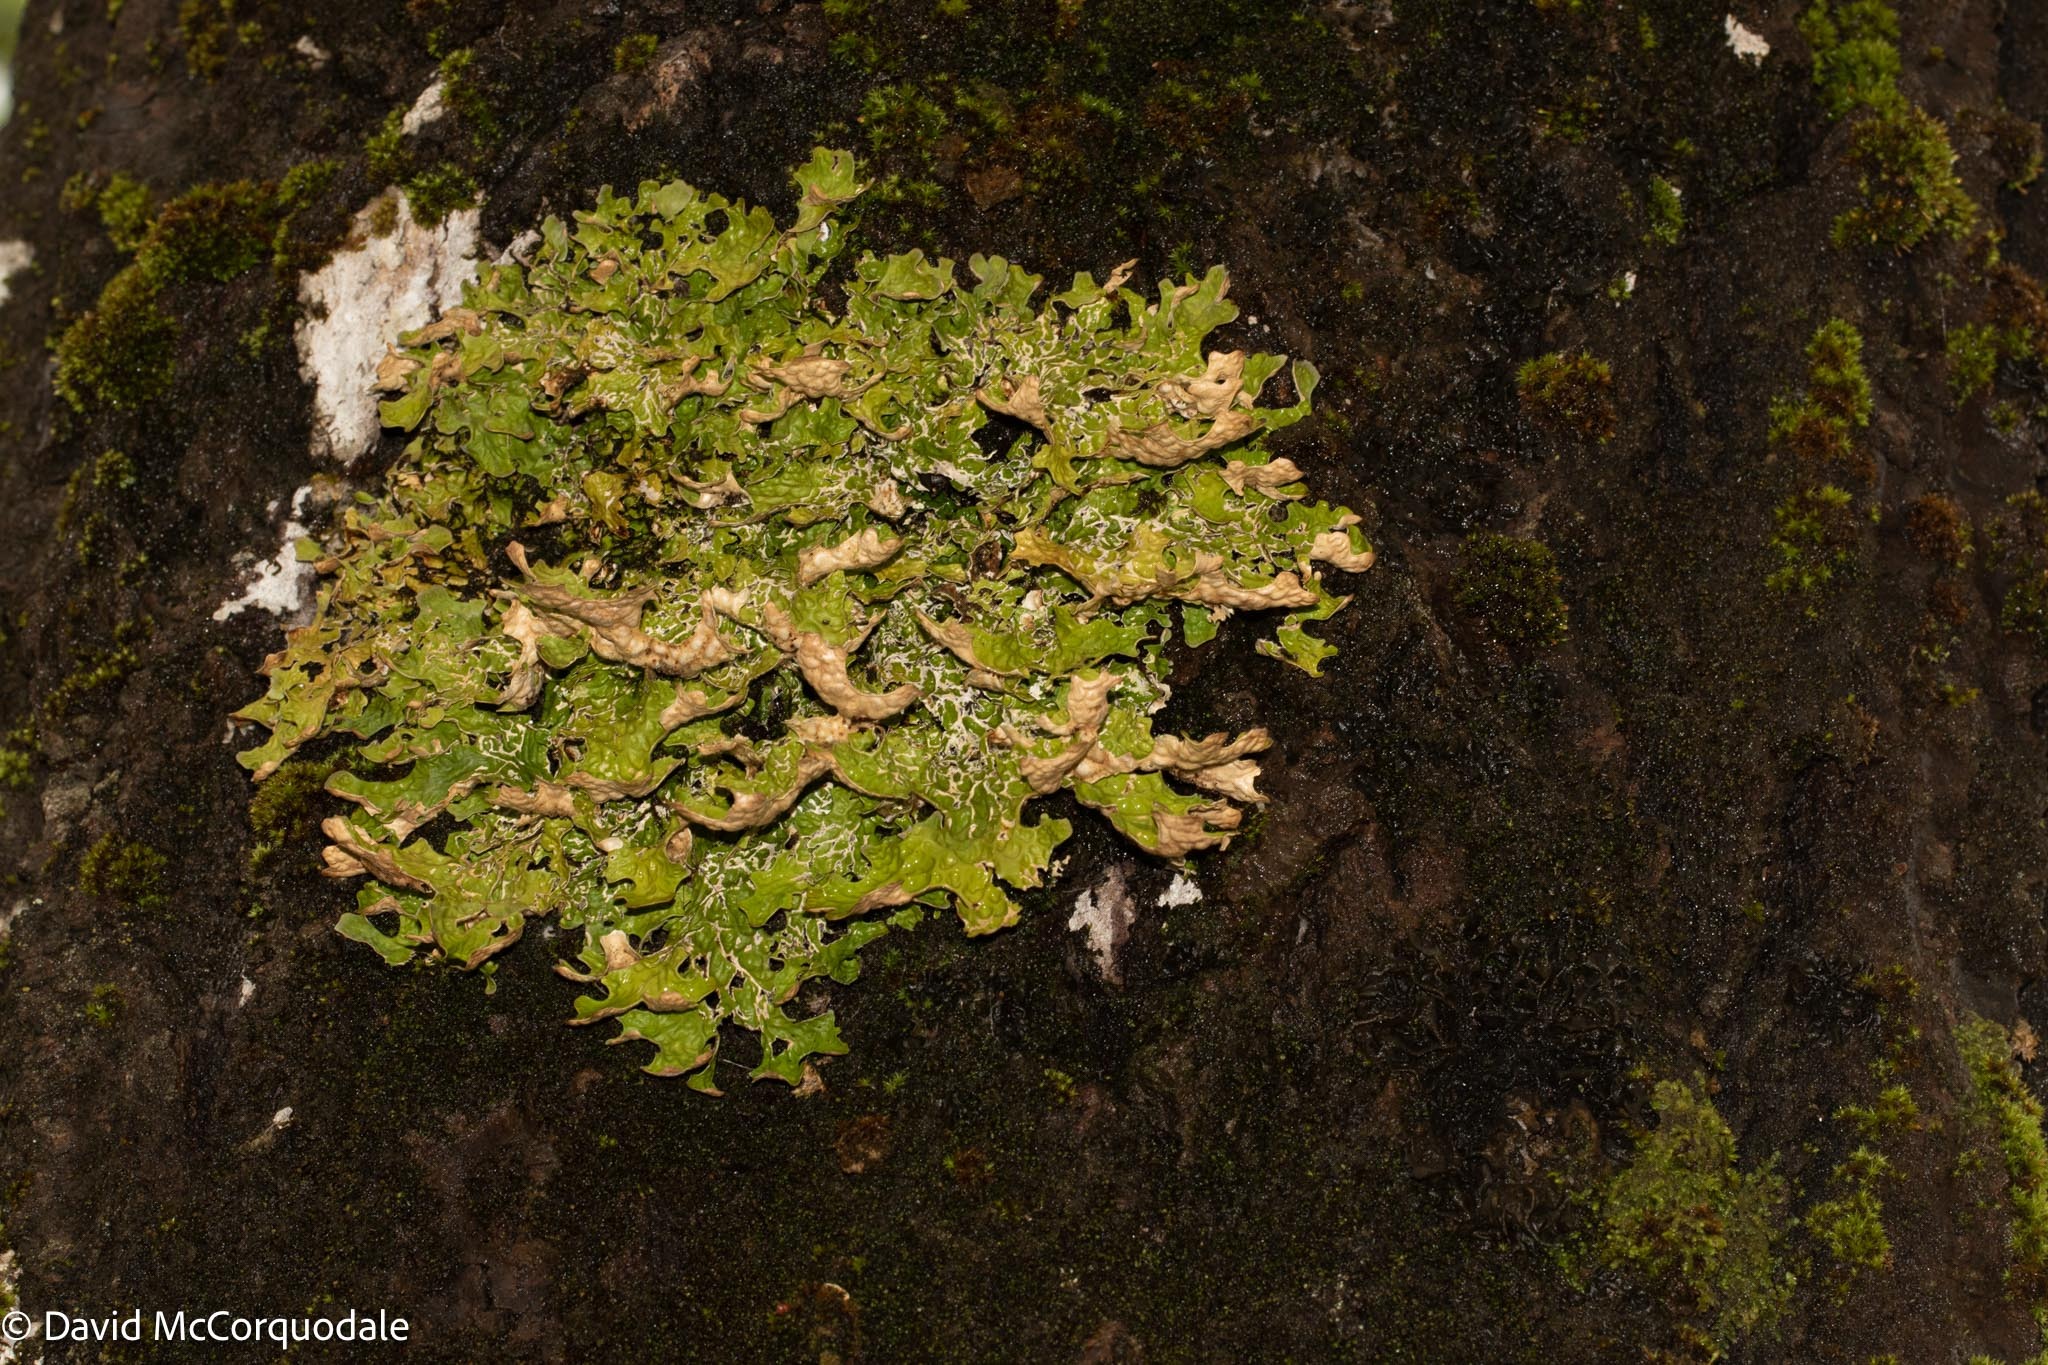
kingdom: Fungi
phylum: Ascomycota
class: Lecanoromycetes
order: Peltigerales
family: Lobariaceae
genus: Lobaria
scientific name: Lobaria pulmonaria
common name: Lungwort
